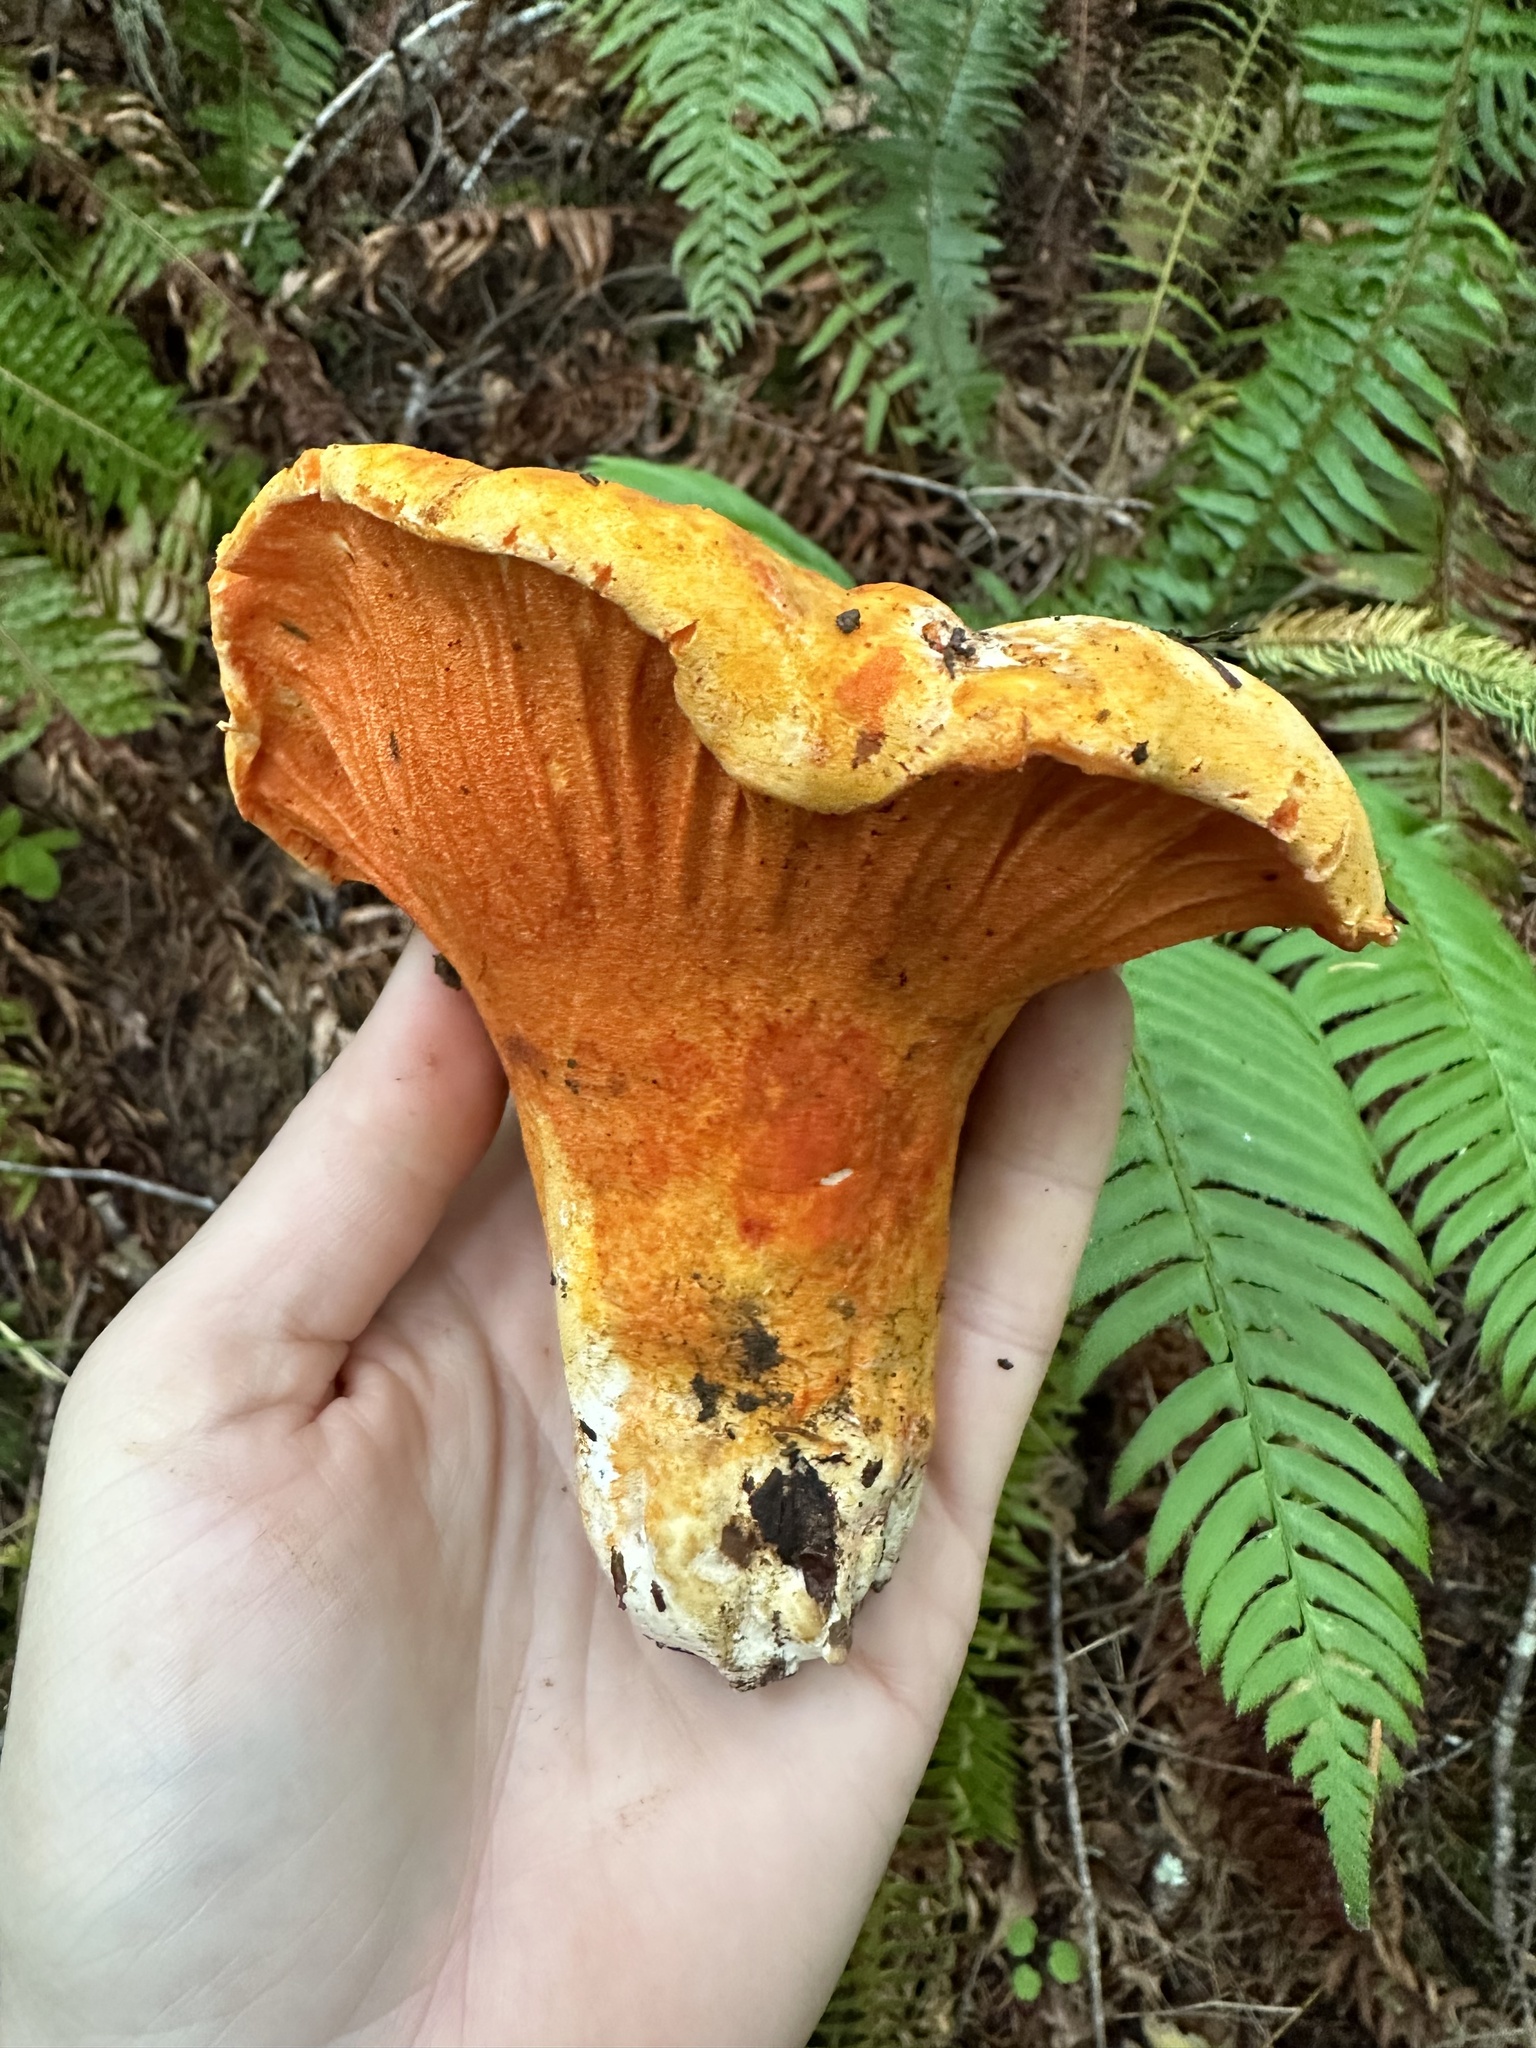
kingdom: Fungi
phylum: Ascomycota
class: Sordariomycetes
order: Hypocreales
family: Hypocreaceae
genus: Hypomyces
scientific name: Hypomyces lactifluorum
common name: Lobster mushroom
